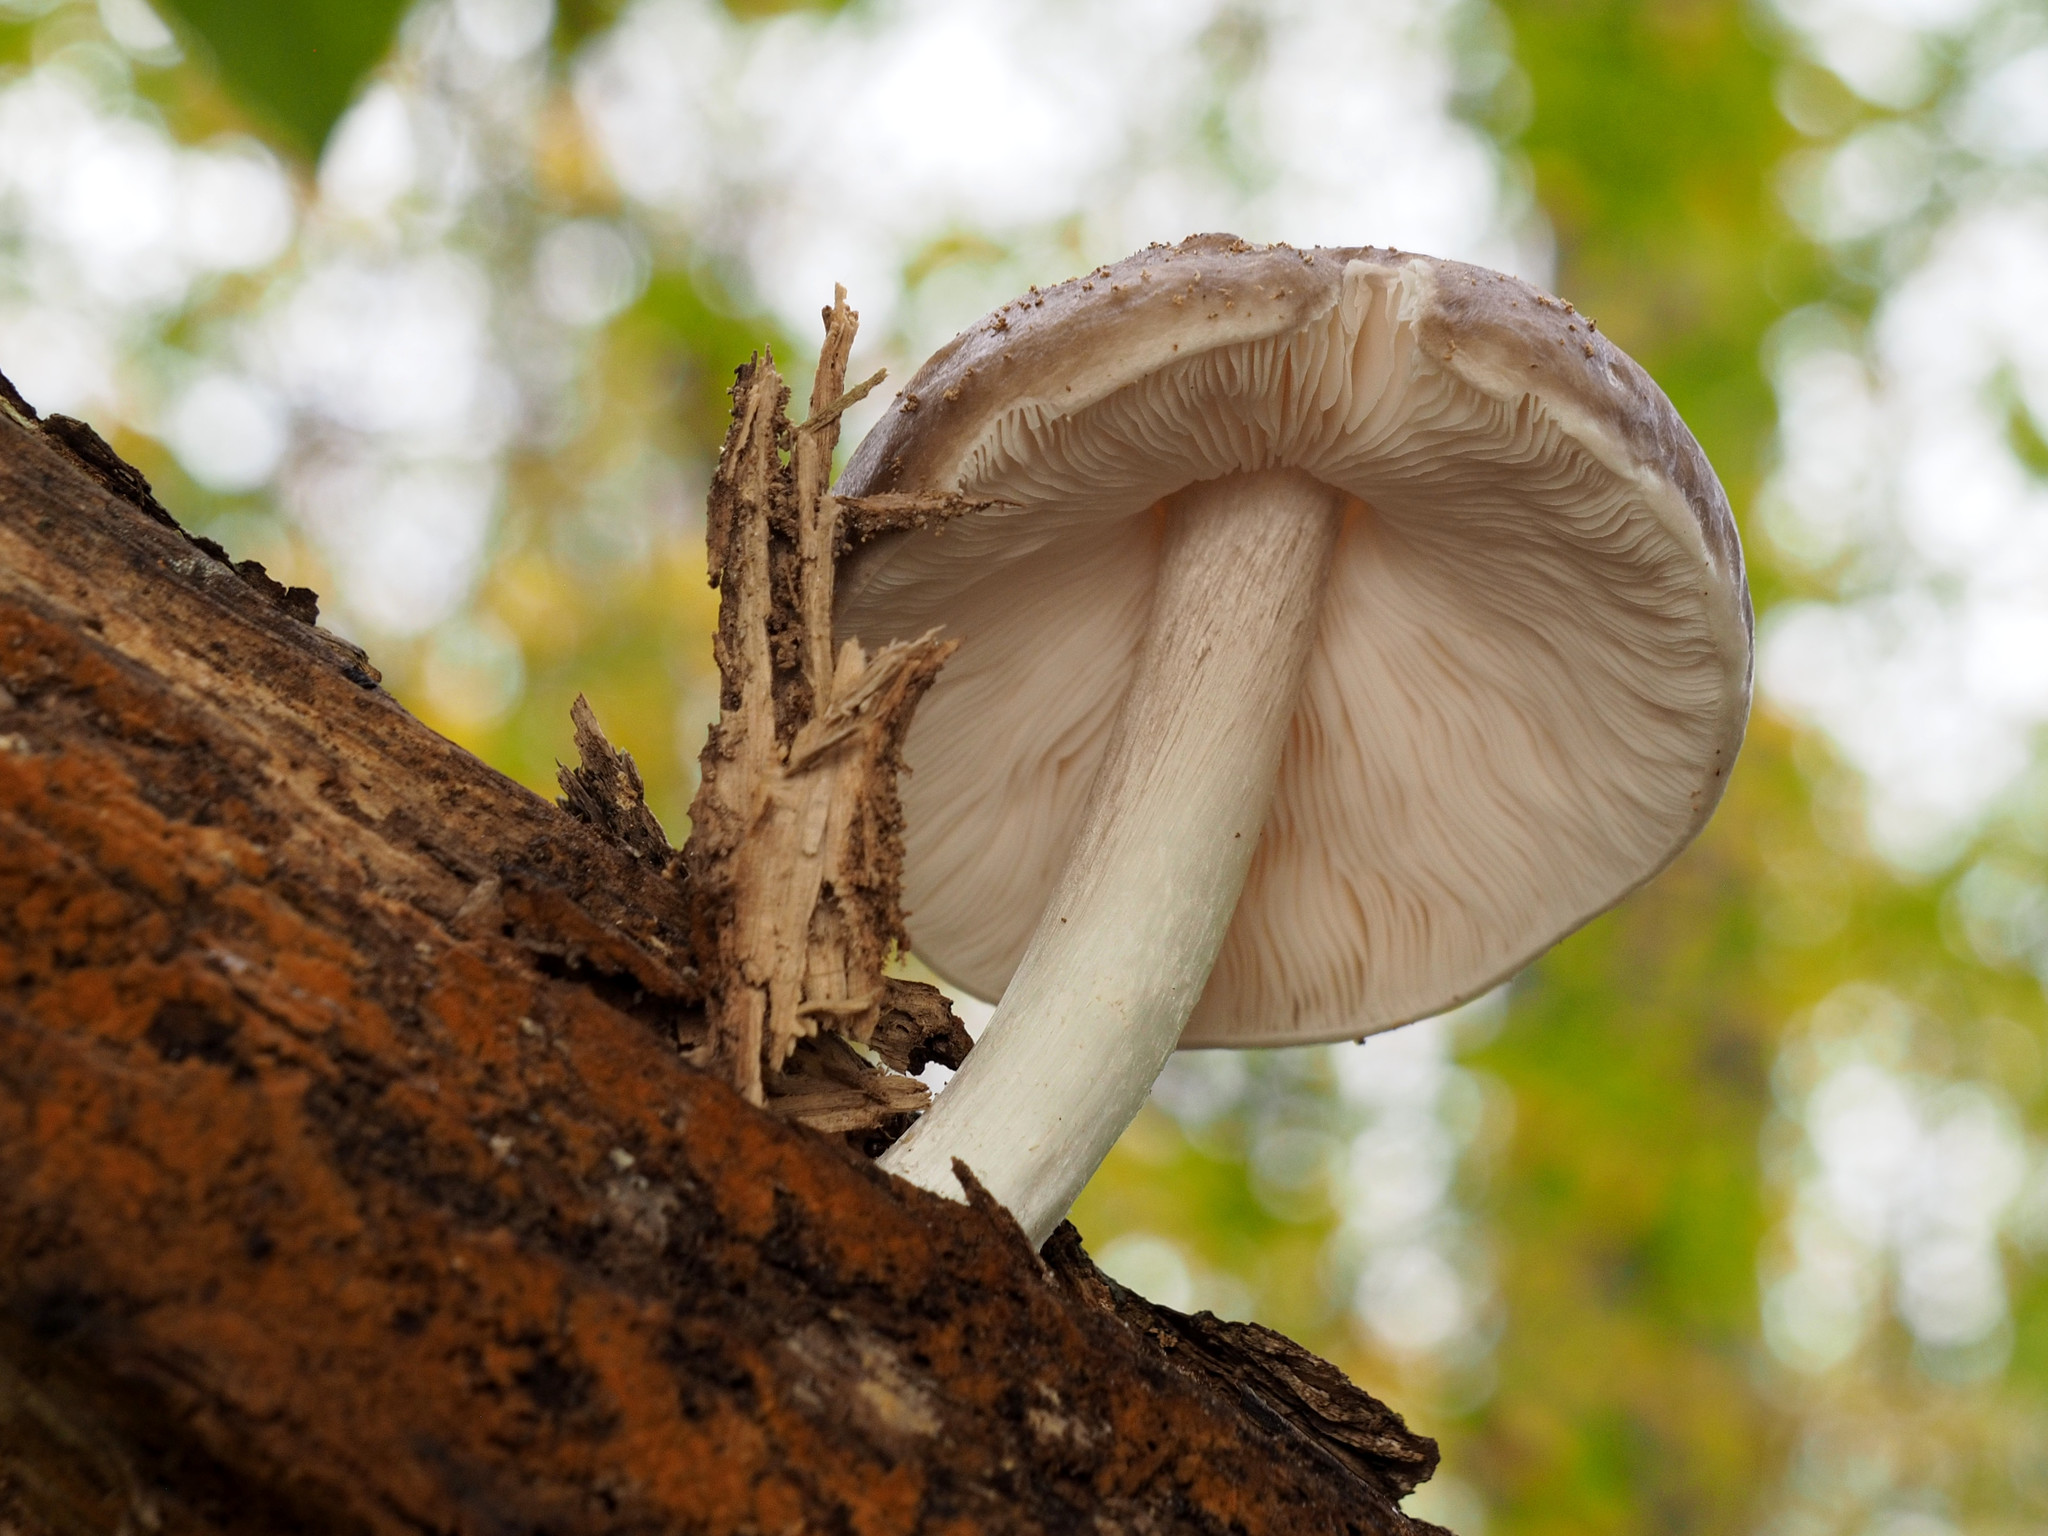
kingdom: Fungi
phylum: Basidiomycota
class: Agaricomycetes
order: Agaricales
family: Pluteaceae
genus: Pluteus
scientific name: Pluteus cervinus
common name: Deer shield
